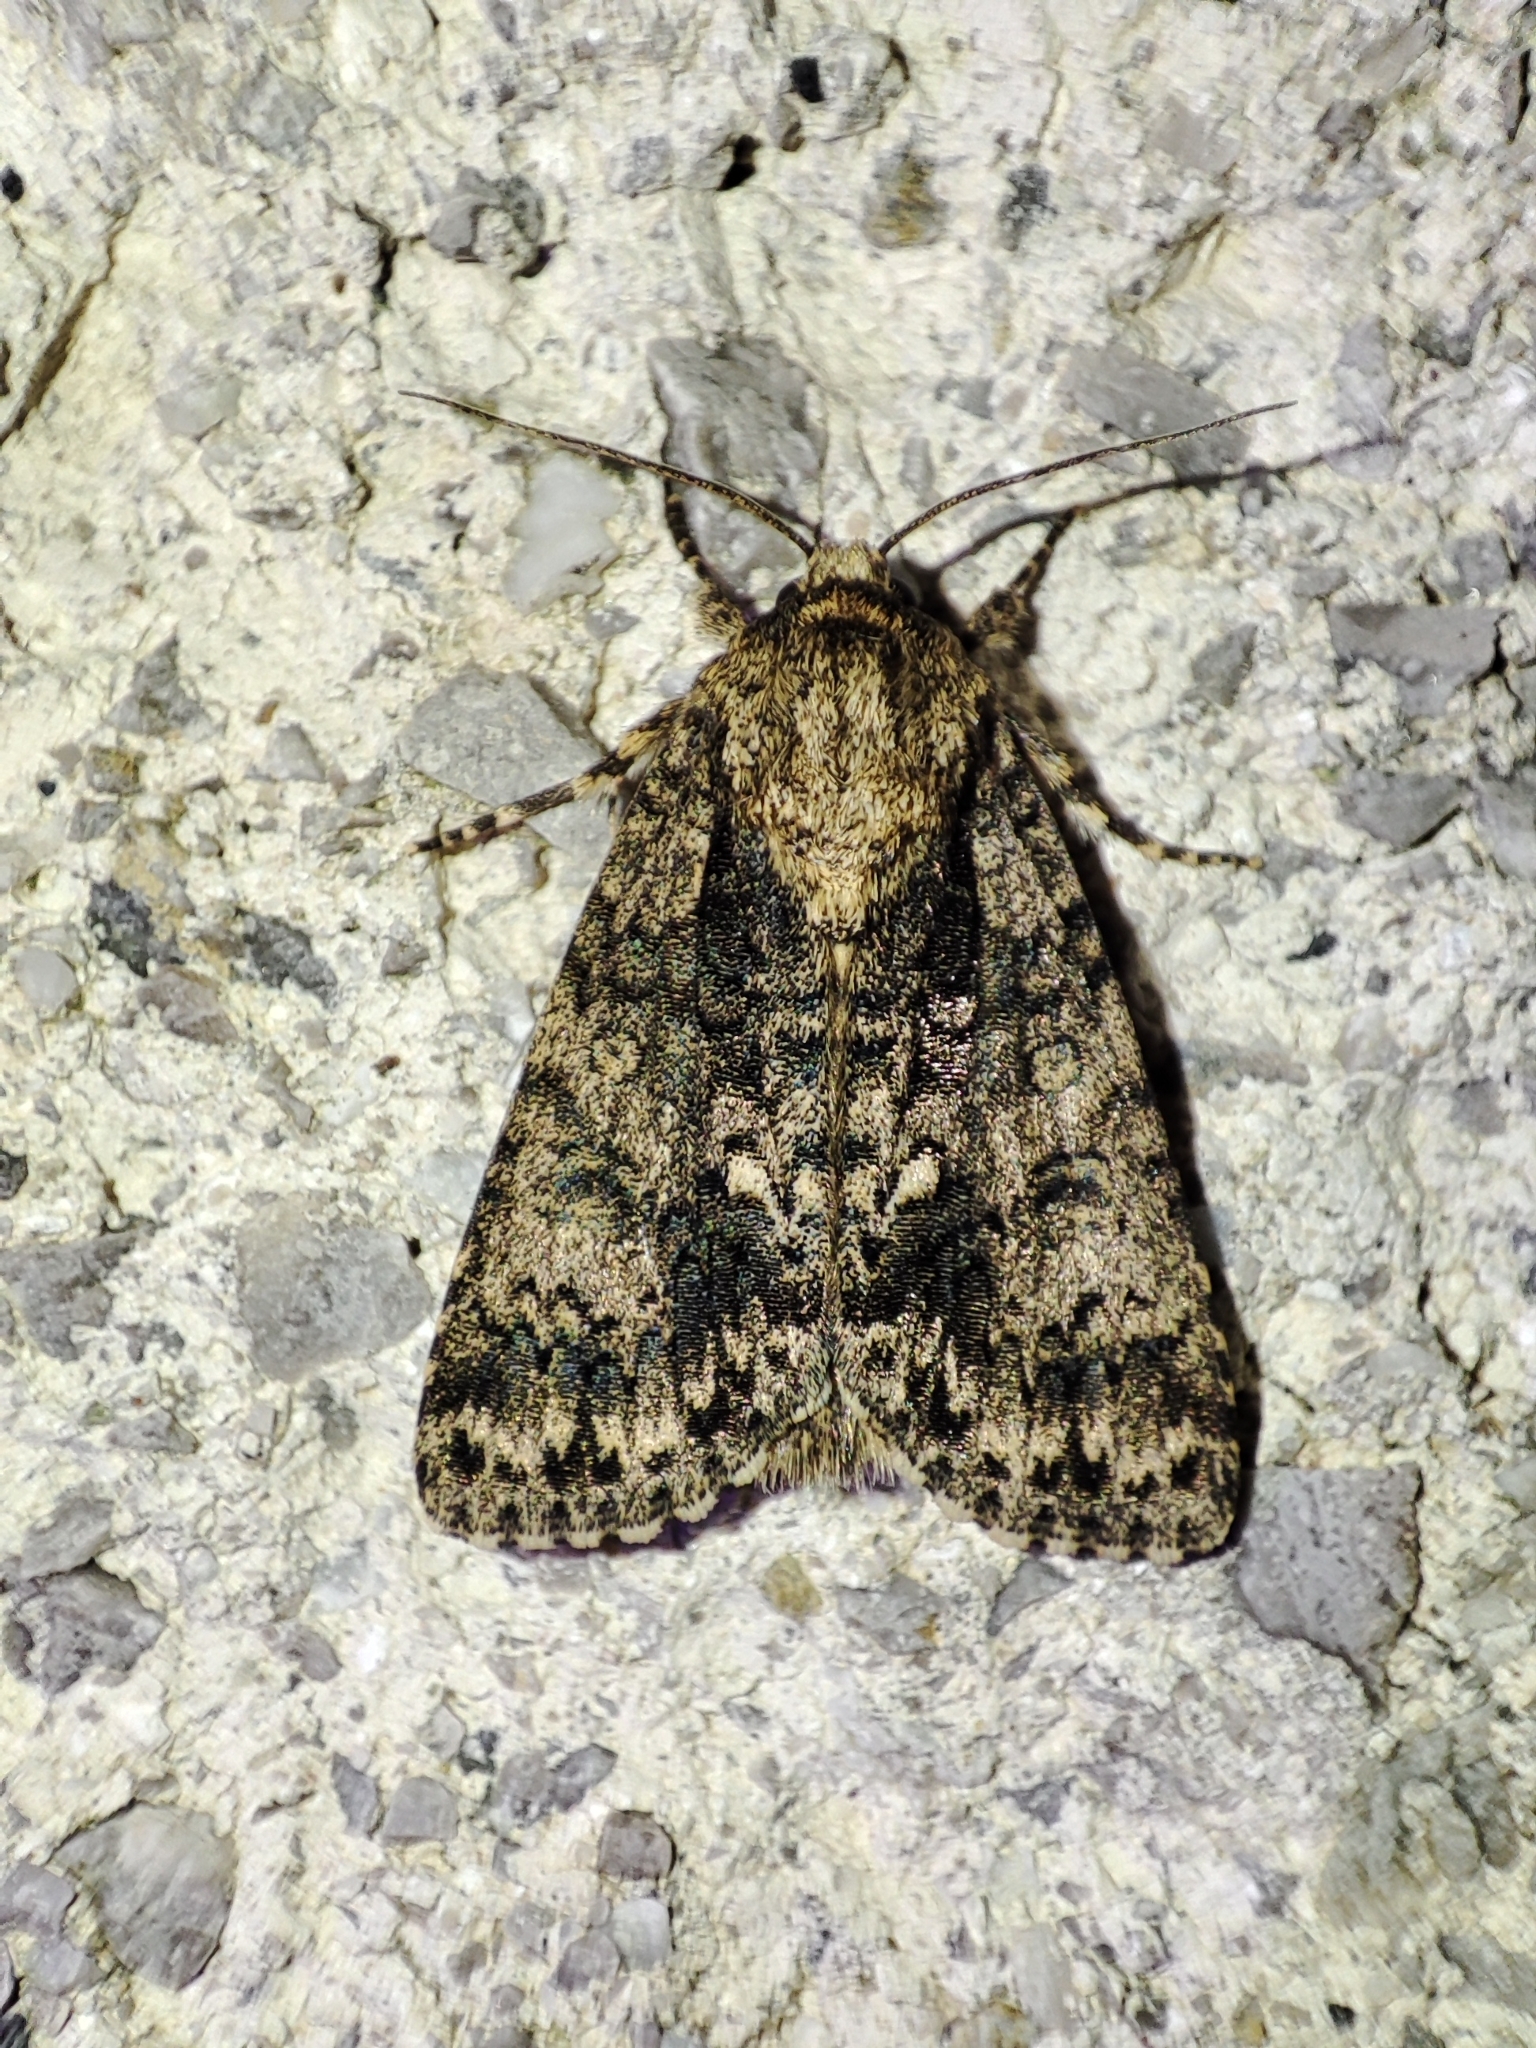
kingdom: Animalia
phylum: Arthropoda
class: Insecta
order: Lepidoptera
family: Noctuidae
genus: Acronicta
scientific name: Acronicta rumicis
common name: Knot grass
